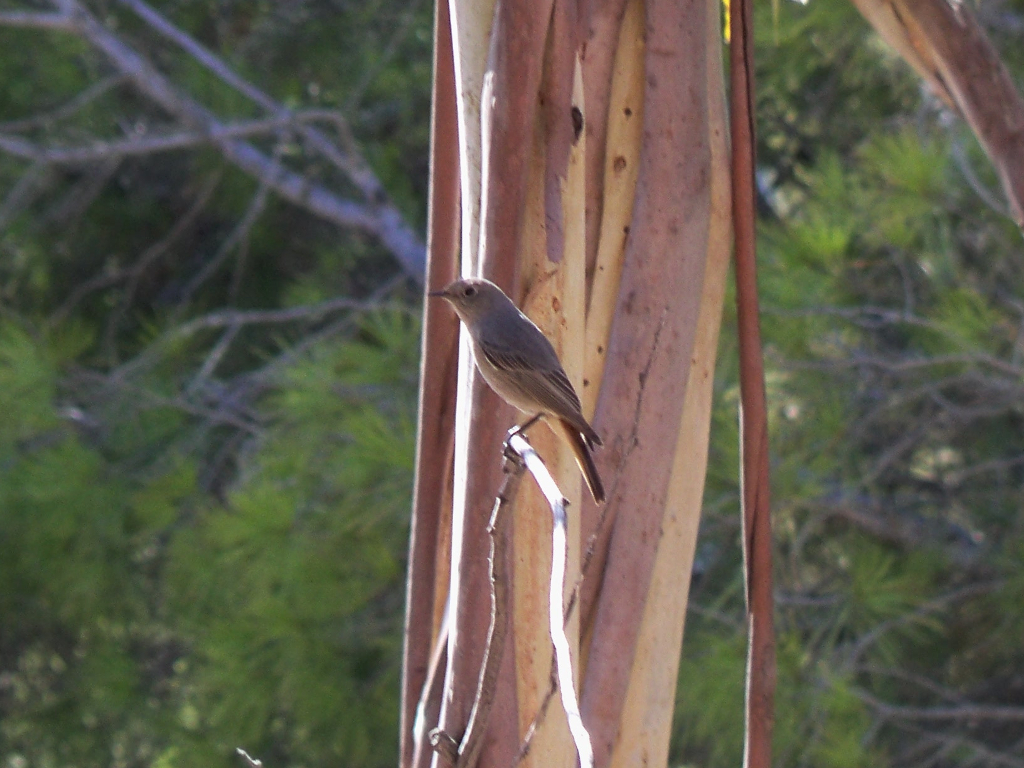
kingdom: Animalia
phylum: Chordata
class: Aves
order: Passeriformes
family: Muscicapidae
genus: Phoenicurus
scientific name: Phoenicurus ochruros
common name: Black redstart
